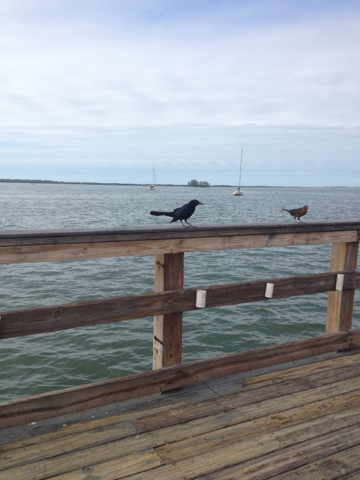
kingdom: Animalia
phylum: Chordata
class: Aves
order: Passeriformes
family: Icteridae
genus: Quiscalus
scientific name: Quiscalus major
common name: Boat-tailed grackle
